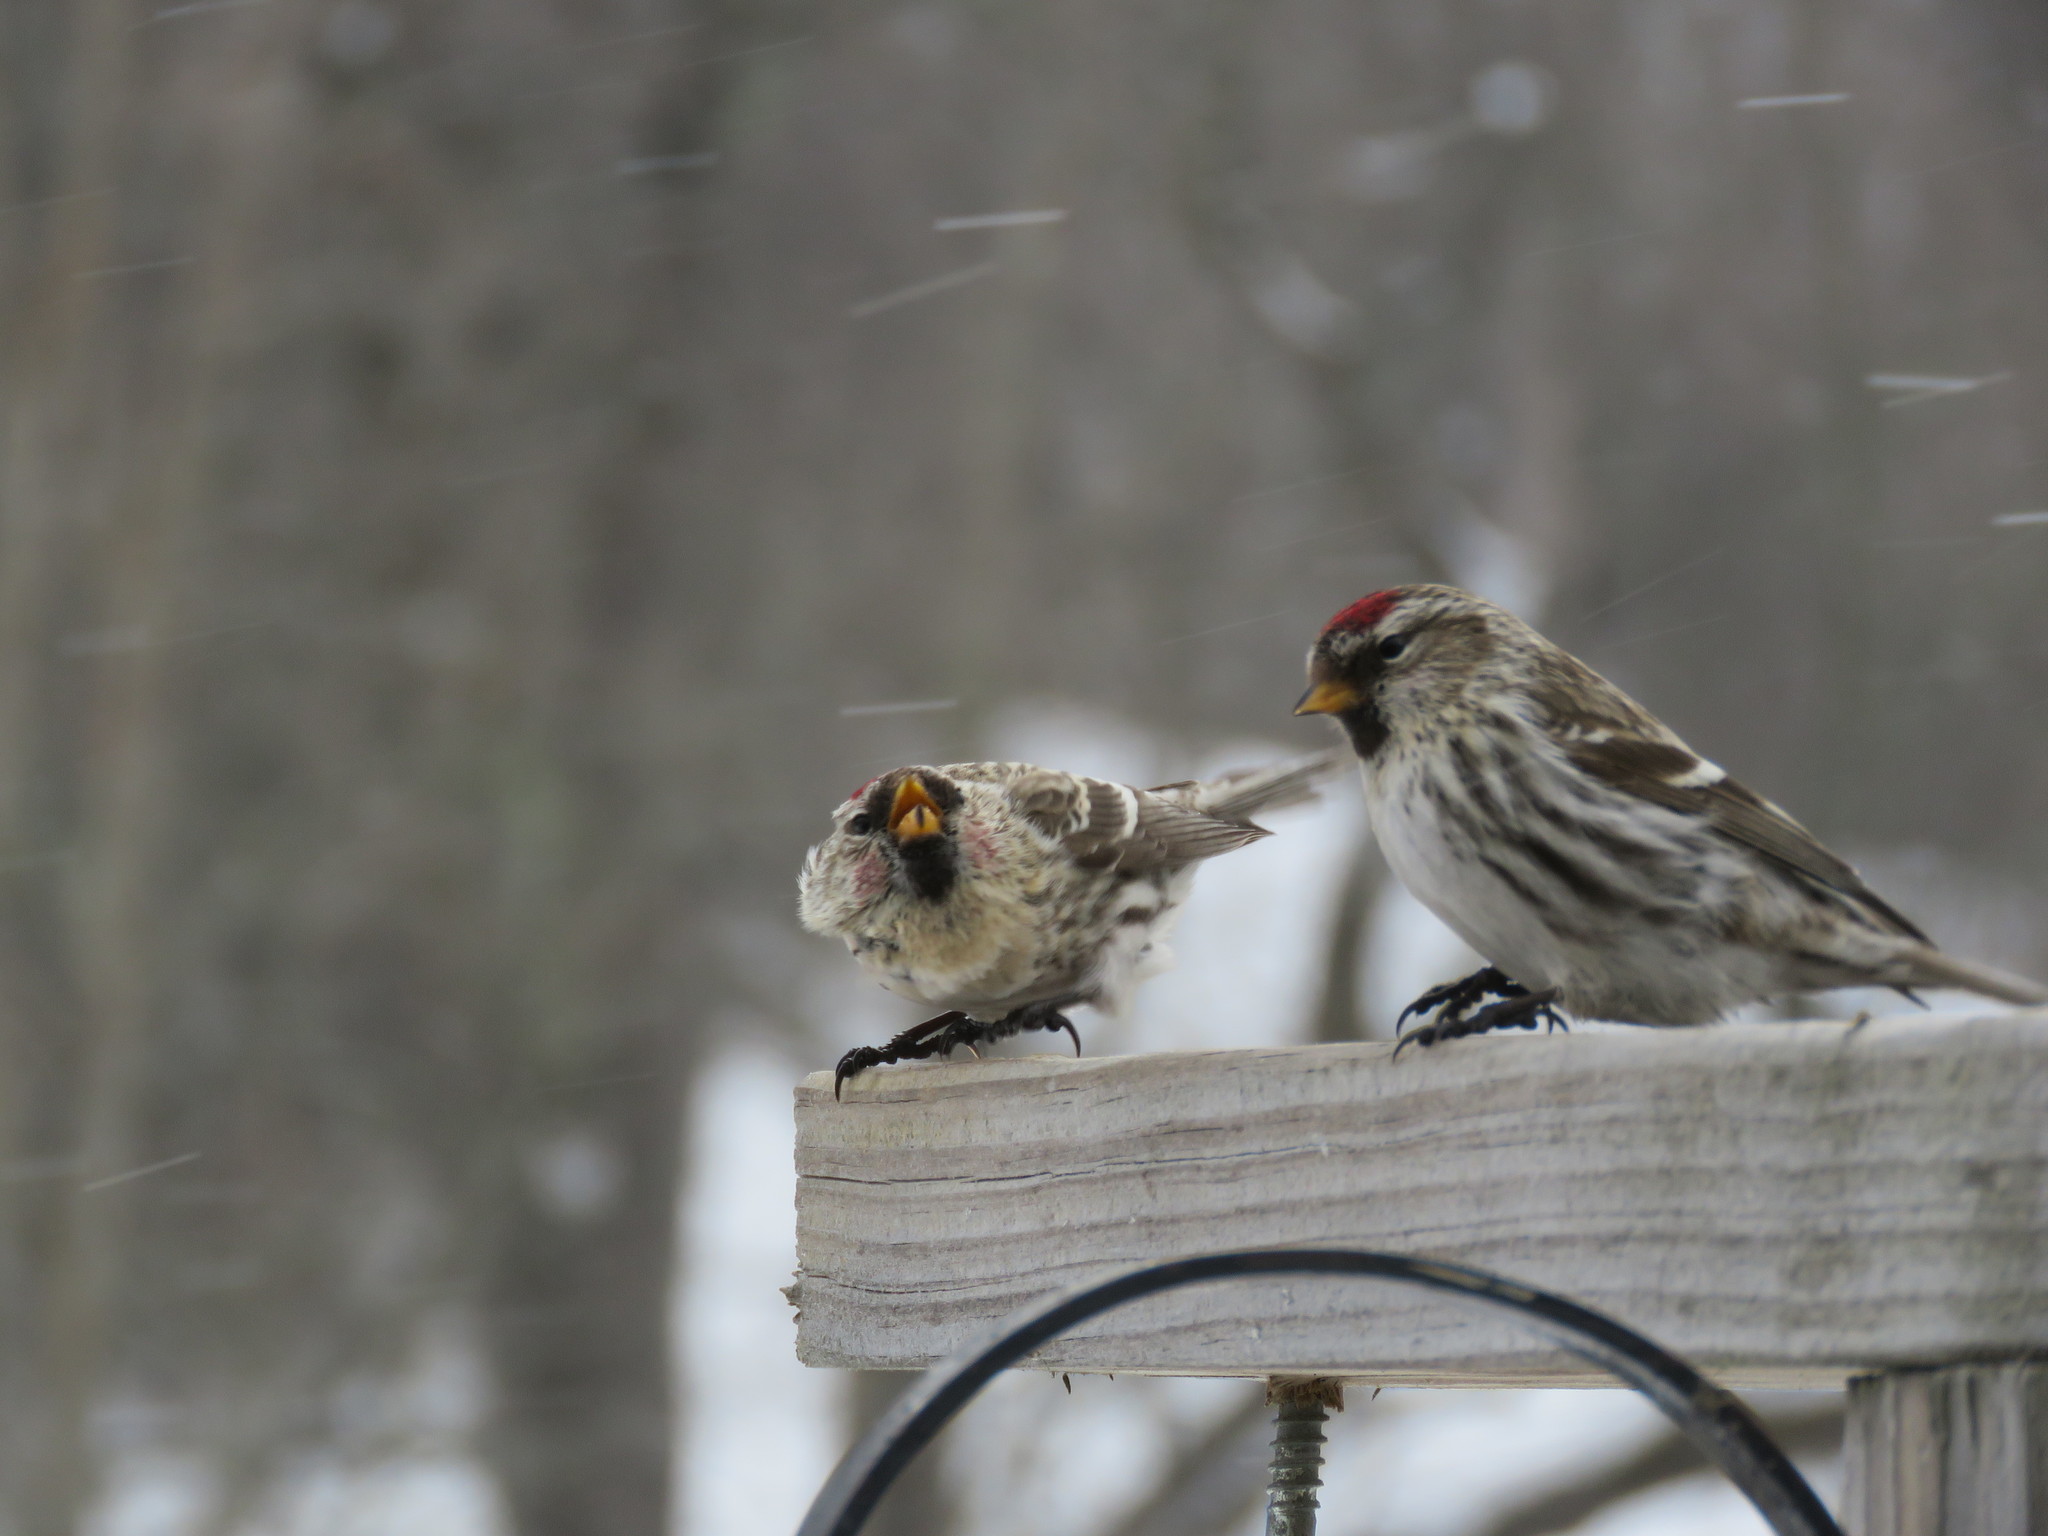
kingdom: Animalia
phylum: Chordata
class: Aves
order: Passeriformes
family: Fringillidae
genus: Acanthis
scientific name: Acanthis flammea
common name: Common redpoll
